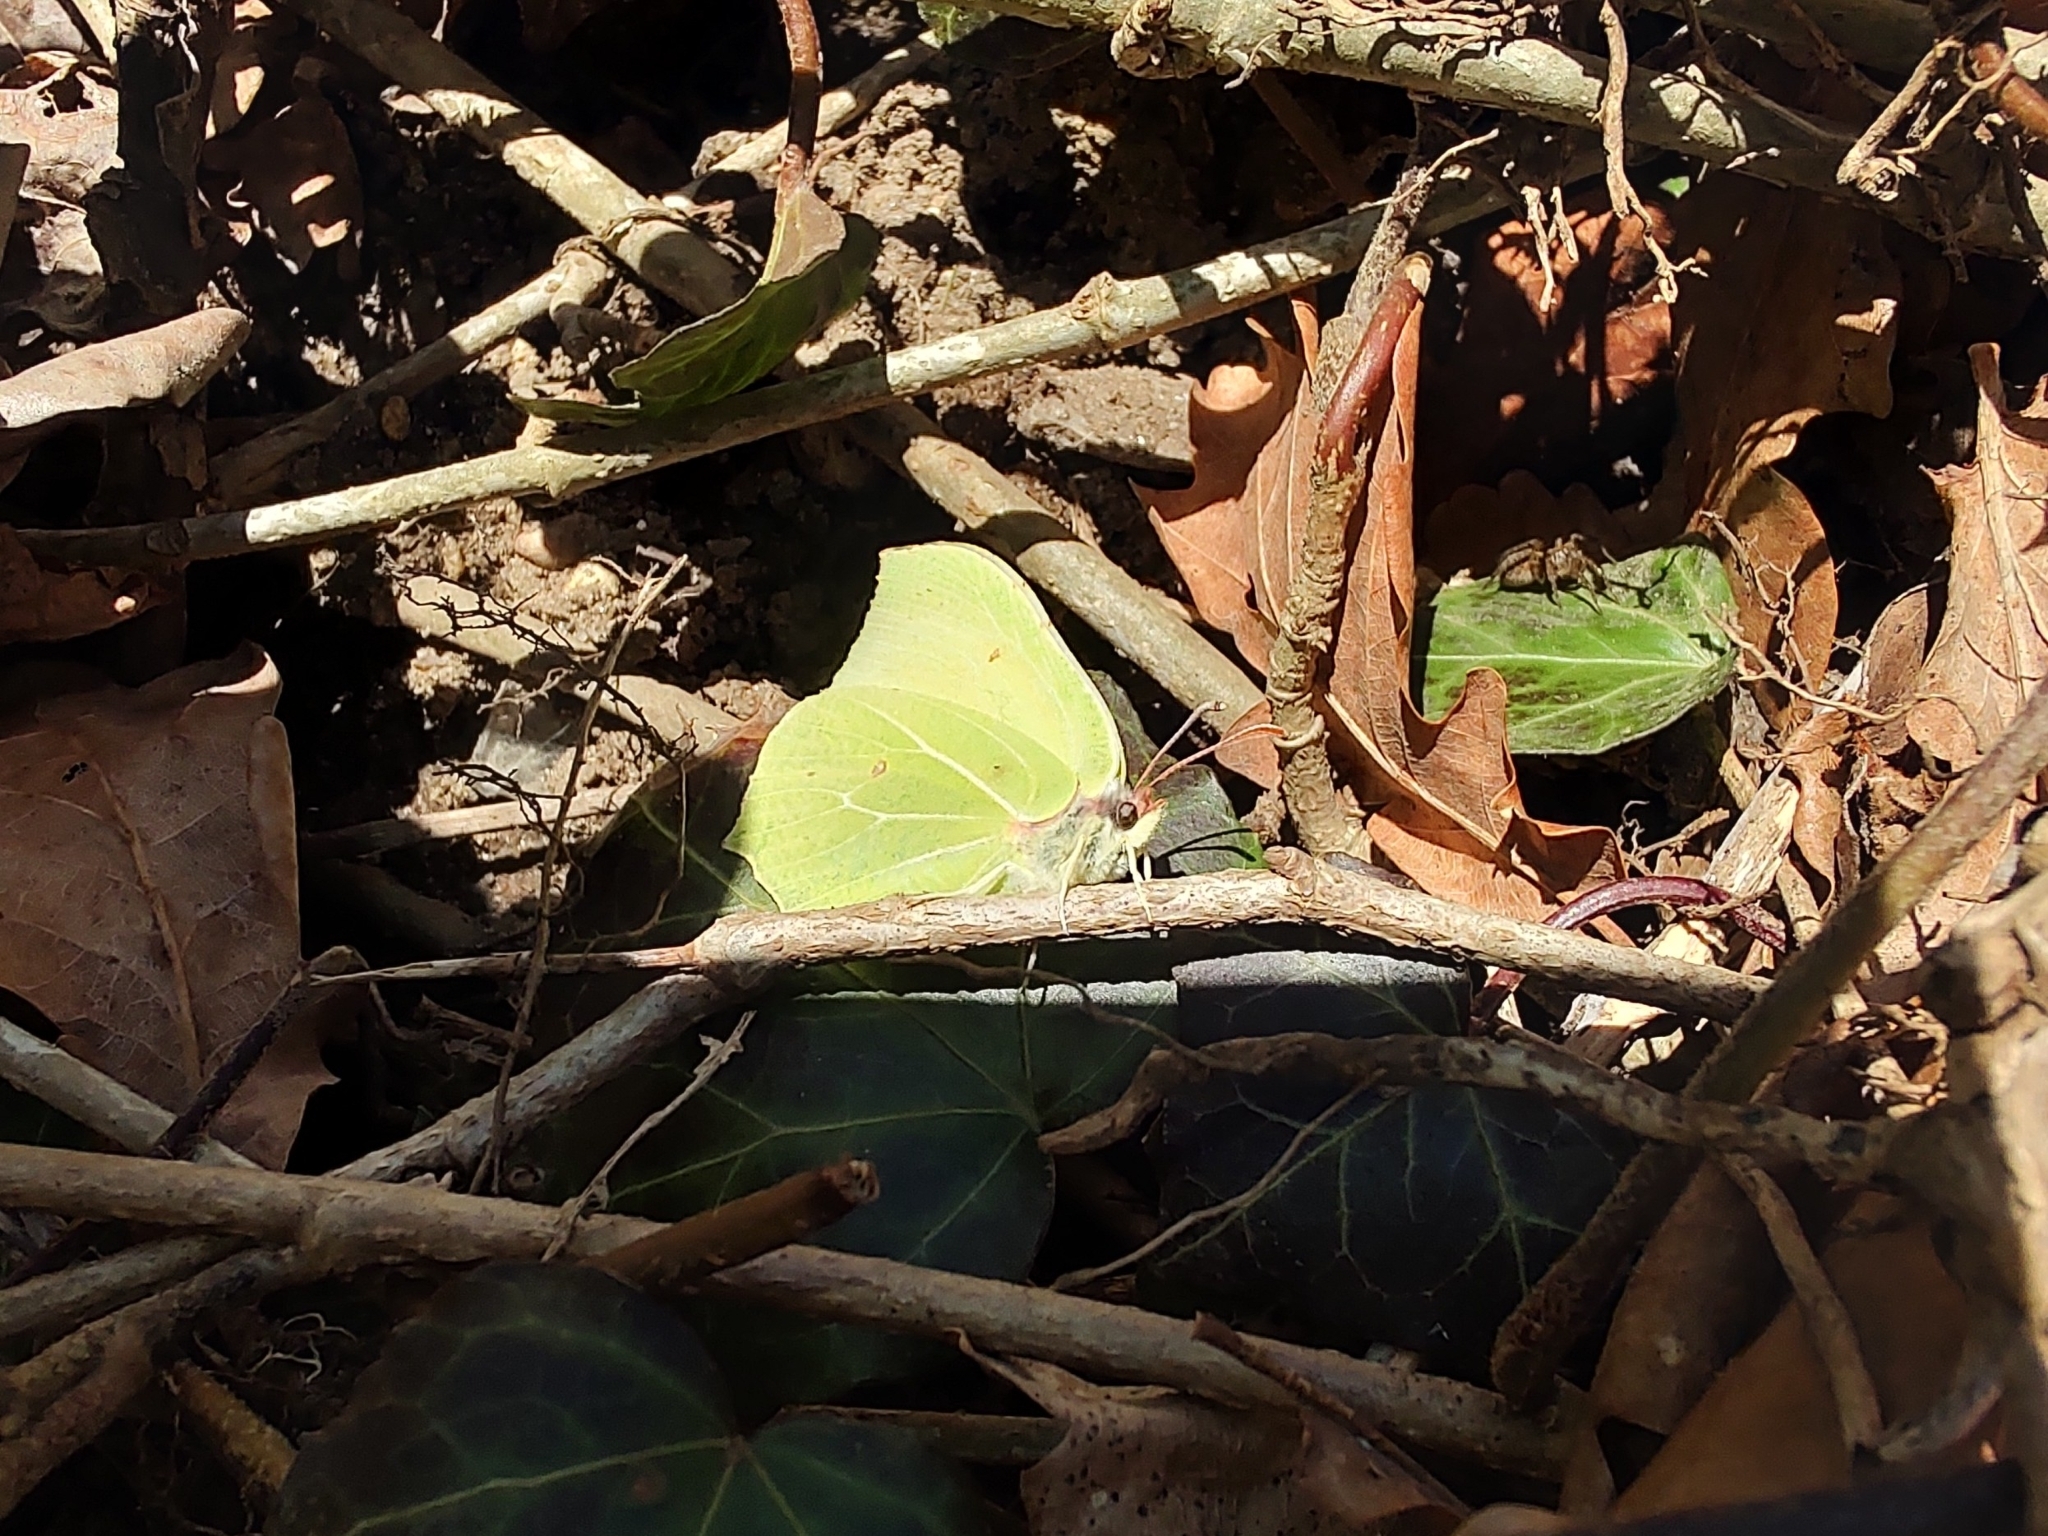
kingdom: Animalia
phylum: Arthropoda
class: Insecta
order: Lepidoptera
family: Pieridae
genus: Gonepteryx
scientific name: Gonepteryx rhamni
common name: Brimstone
